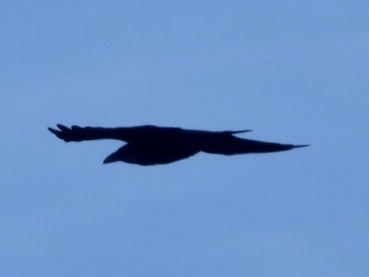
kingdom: Animalia
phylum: Chordata
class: Aves
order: Passeriformes
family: Corvidae
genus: Corvus
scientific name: Corvus corax
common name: Common raven
